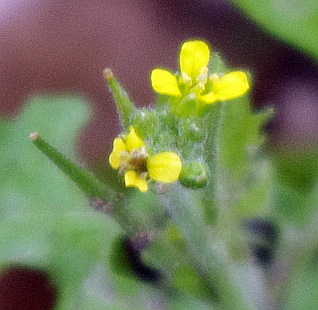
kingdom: Plantae
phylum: Tracheophyta
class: Magnoliopsida
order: Brassicales
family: Brassicaceae
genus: Sisymbrium
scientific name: Sisymbrium officinale
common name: Hedge mustard
